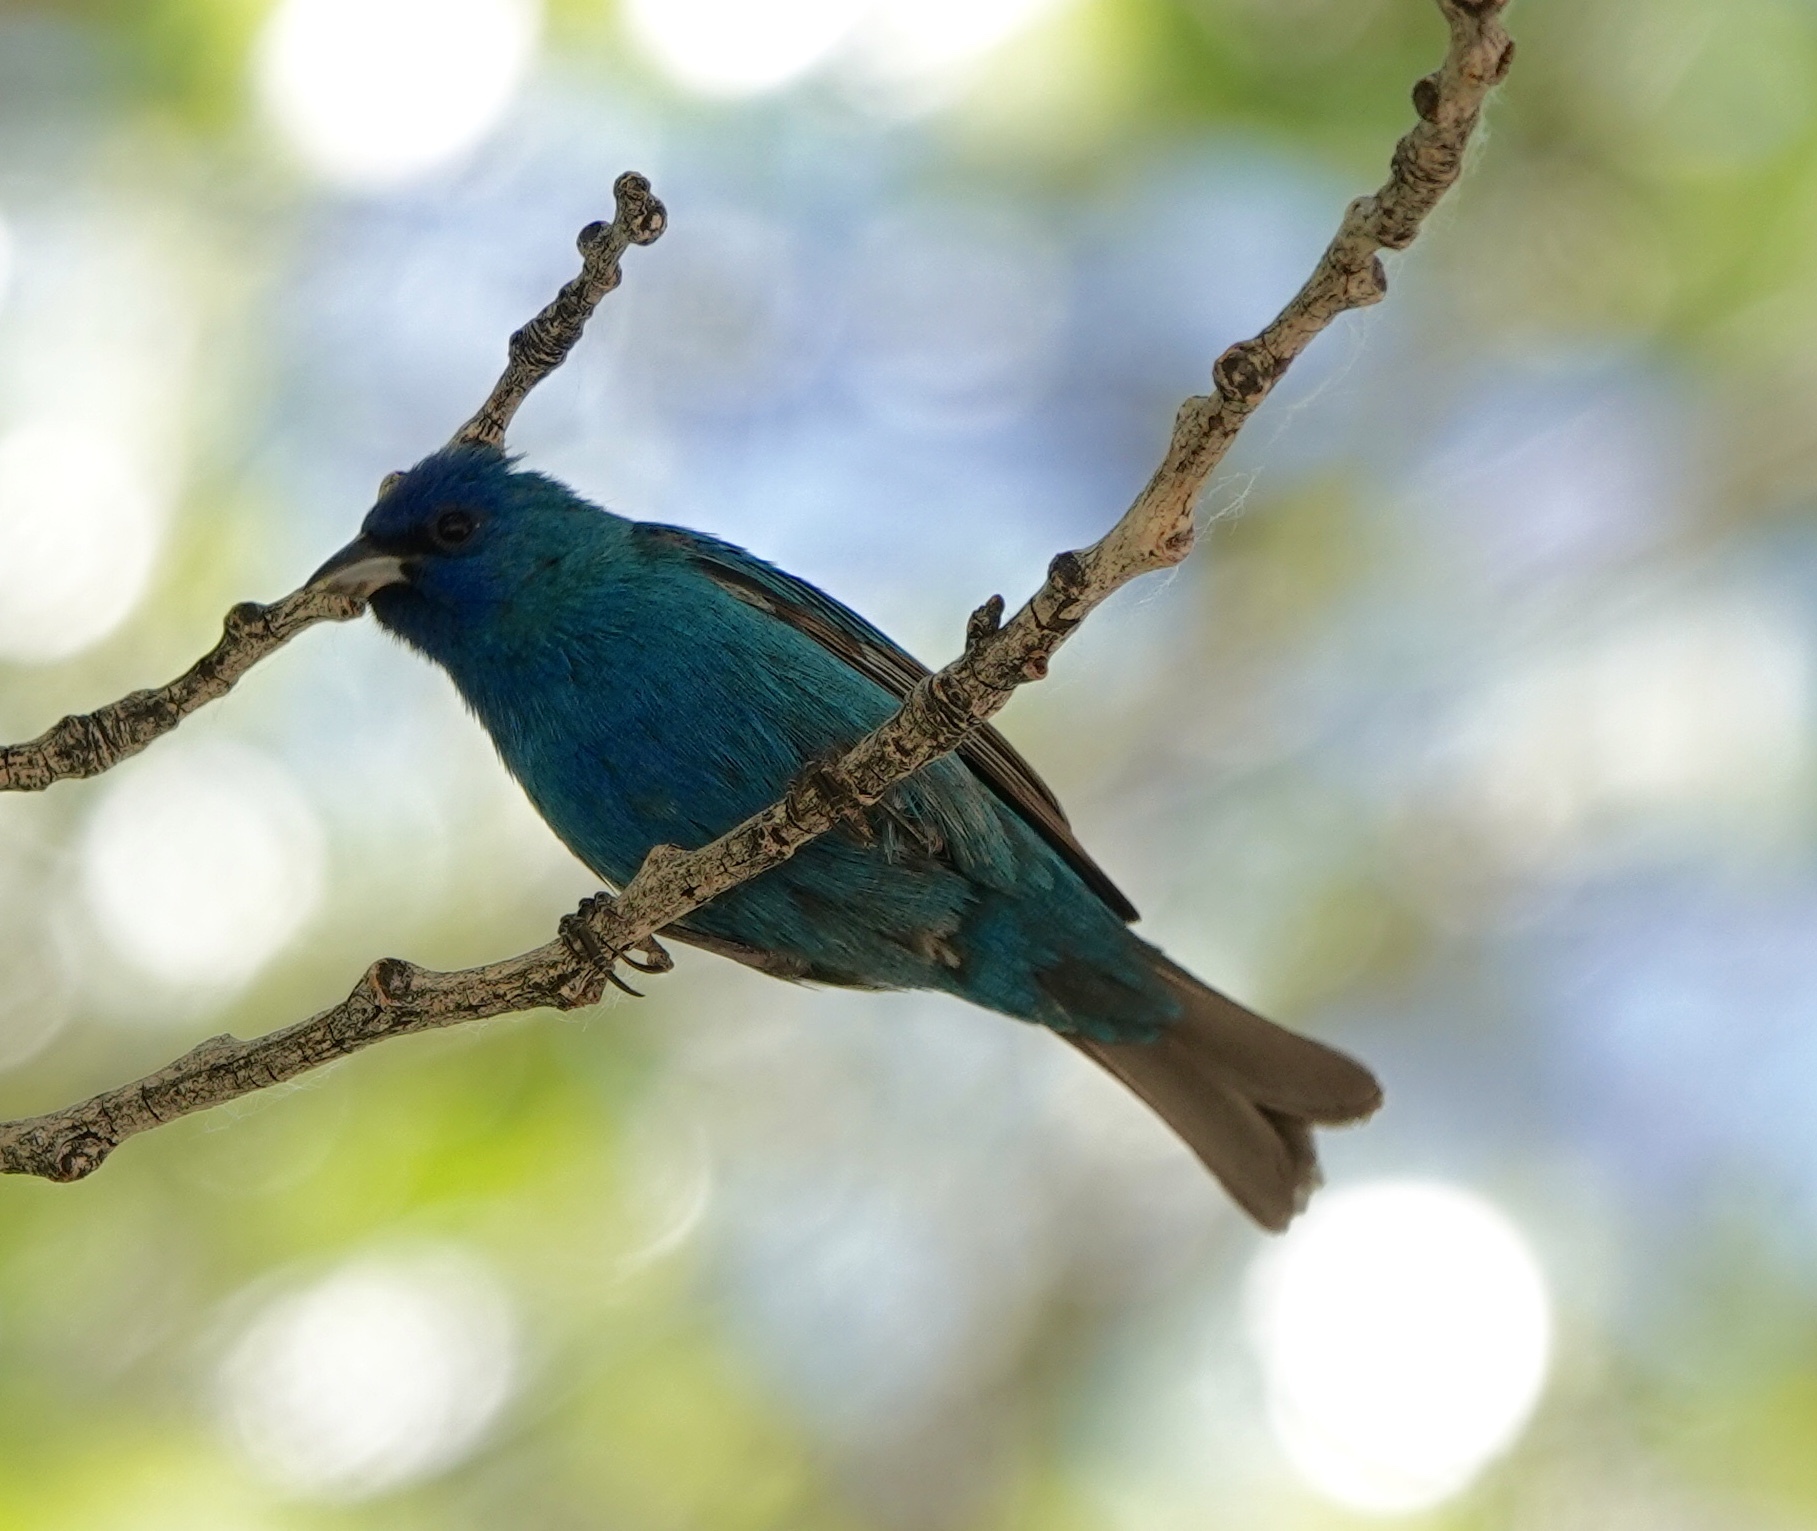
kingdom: Animalia
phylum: Chordata
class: Aves
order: Passeriformes
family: Cardinalidae
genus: Passerina
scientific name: Passerina cyanea
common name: Indigo bunting
